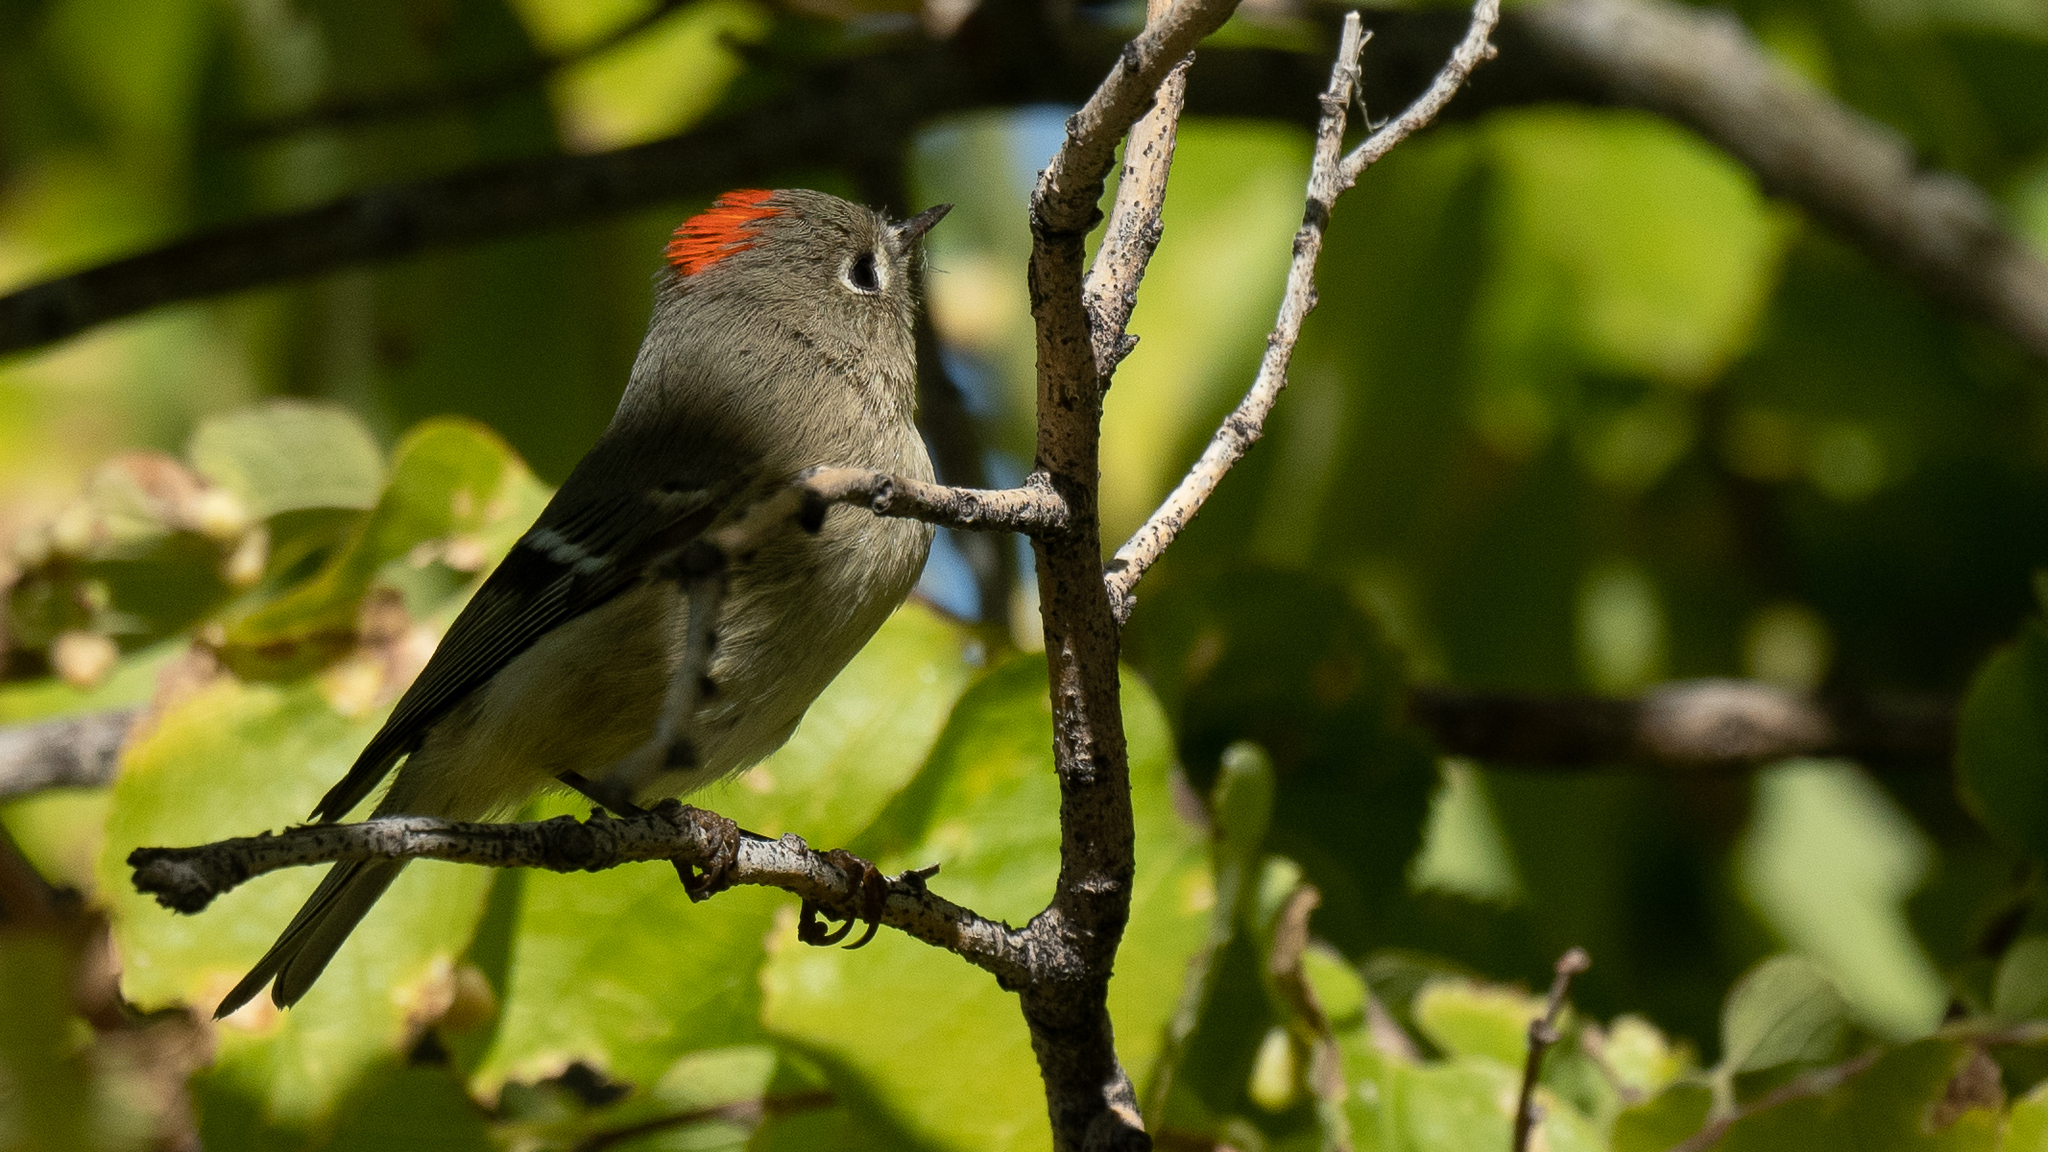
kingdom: Animalia
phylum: Chordata
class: Aves
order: Passeriformes
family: Regulidae
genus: Regulus
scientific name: Regulus calendula
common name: Ruby-crowned kinglet
